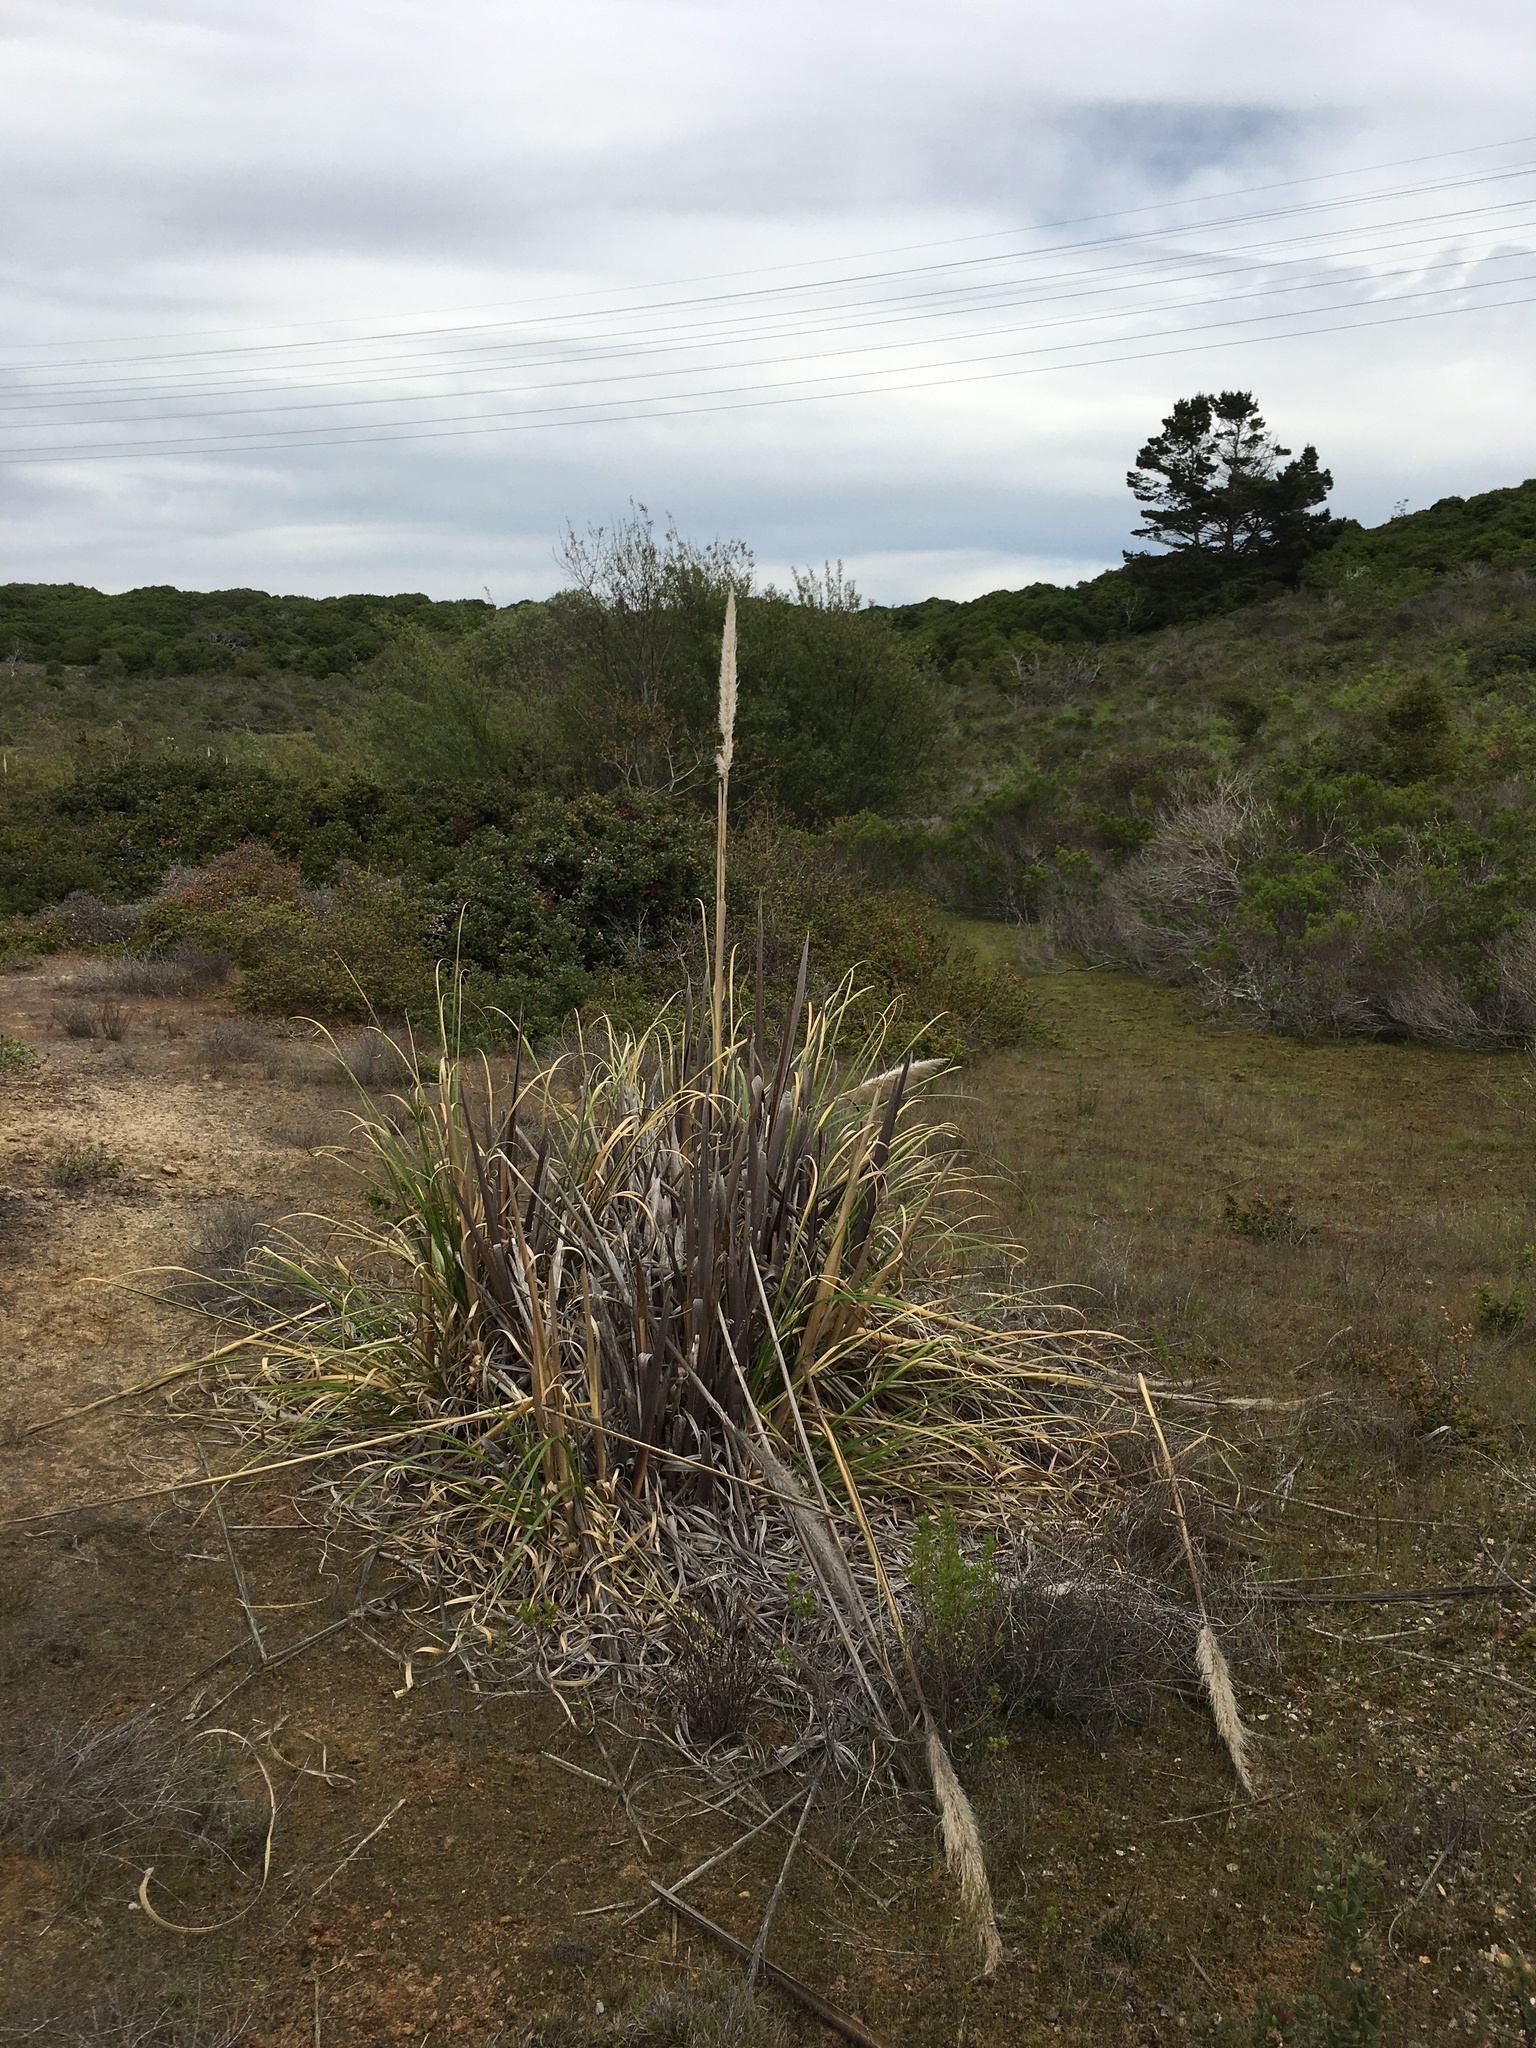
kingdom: Plantae
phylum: Tracheophyta
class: Liliopsida
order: Poales
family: Poaceae
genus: Cortaderia
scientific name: Cortaderia jubata
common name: Purple pampas grass
